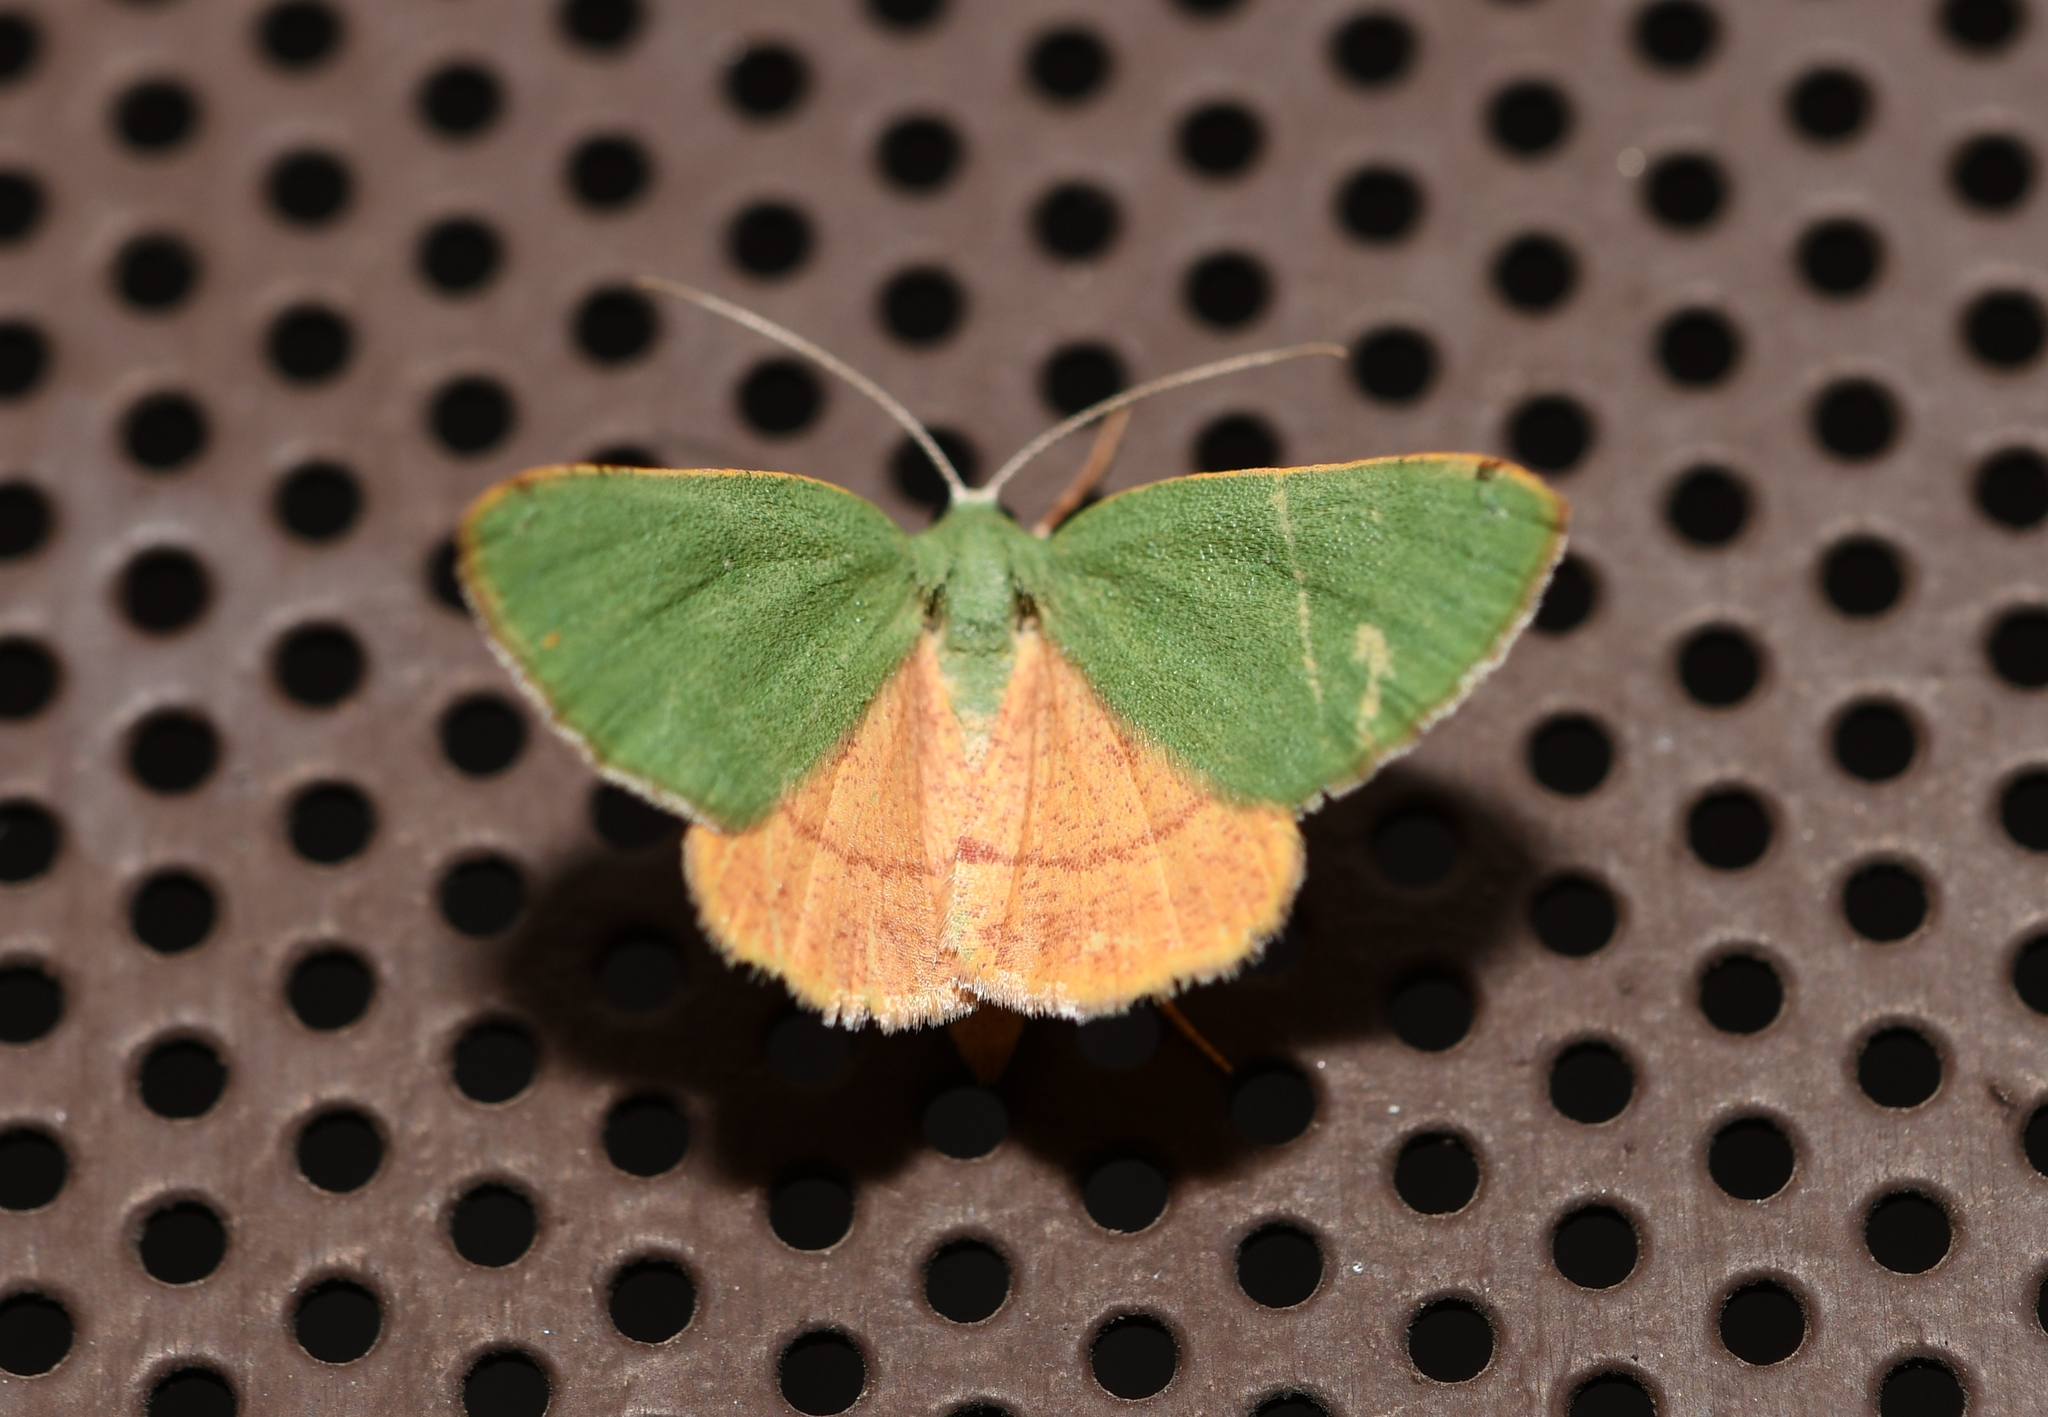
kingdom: Animalia
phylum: Arthropoda
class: Insecta
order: Lepidoptera
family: Geometridae
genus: Chloraspilates
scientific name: Chloraspilates bicoloraria
